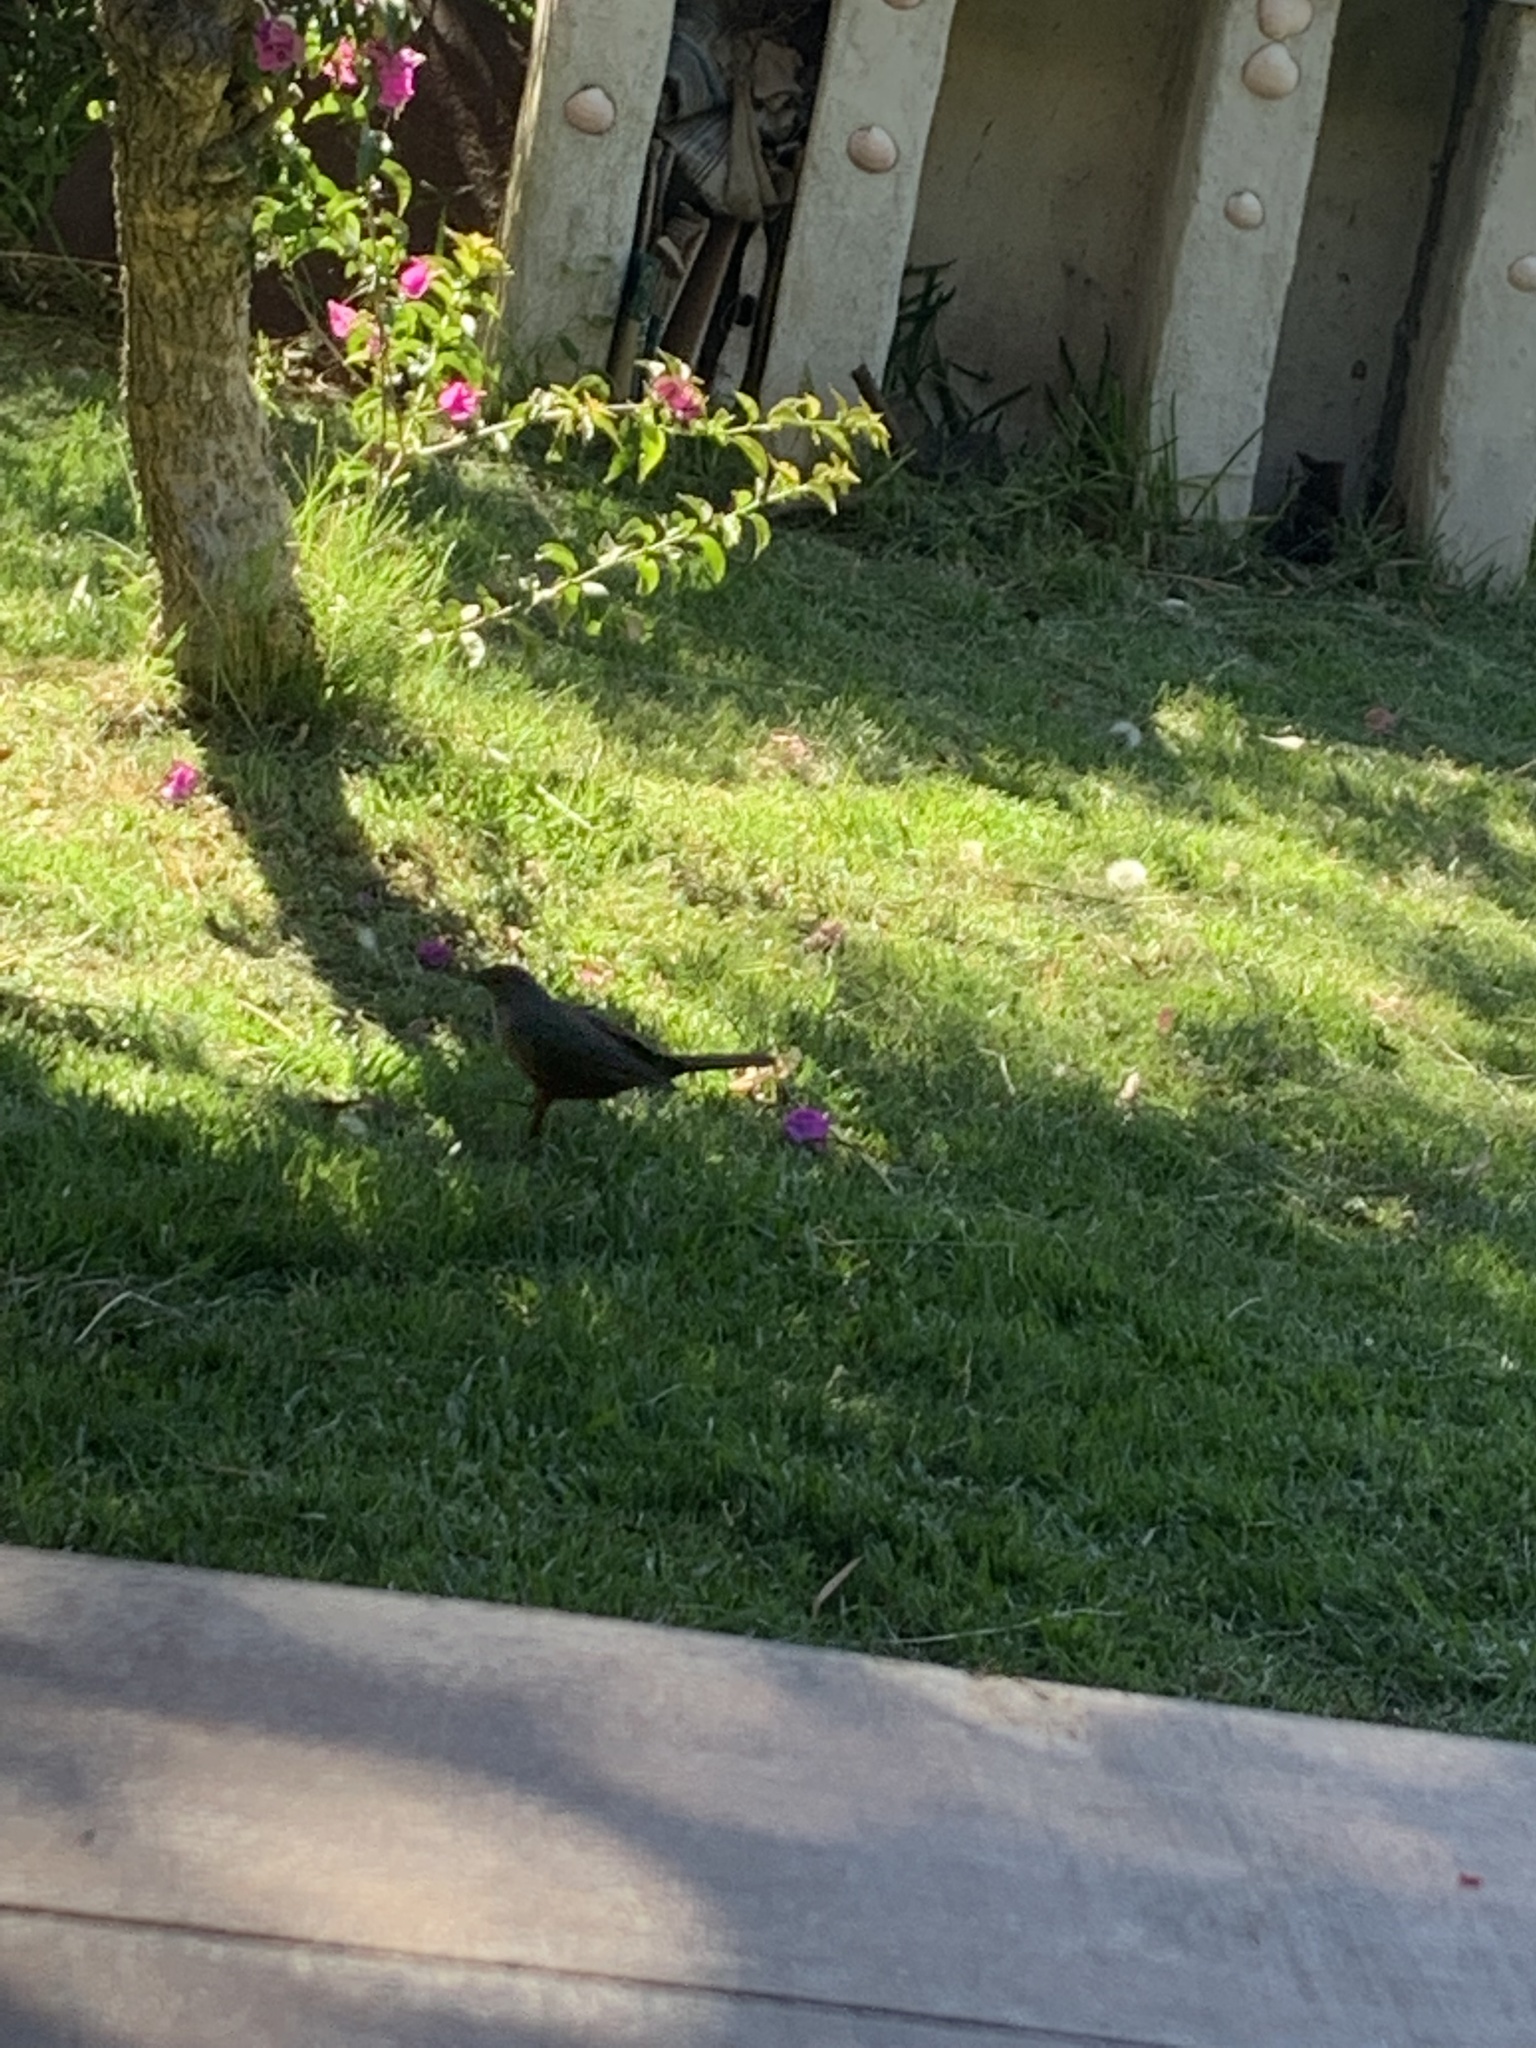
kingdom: Animalia
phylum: Chordata
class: Aves
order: Passeriformes
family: Turdidae
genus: Turdus
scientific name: Turdus rufiventris
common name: Rufous-bellied thrush
